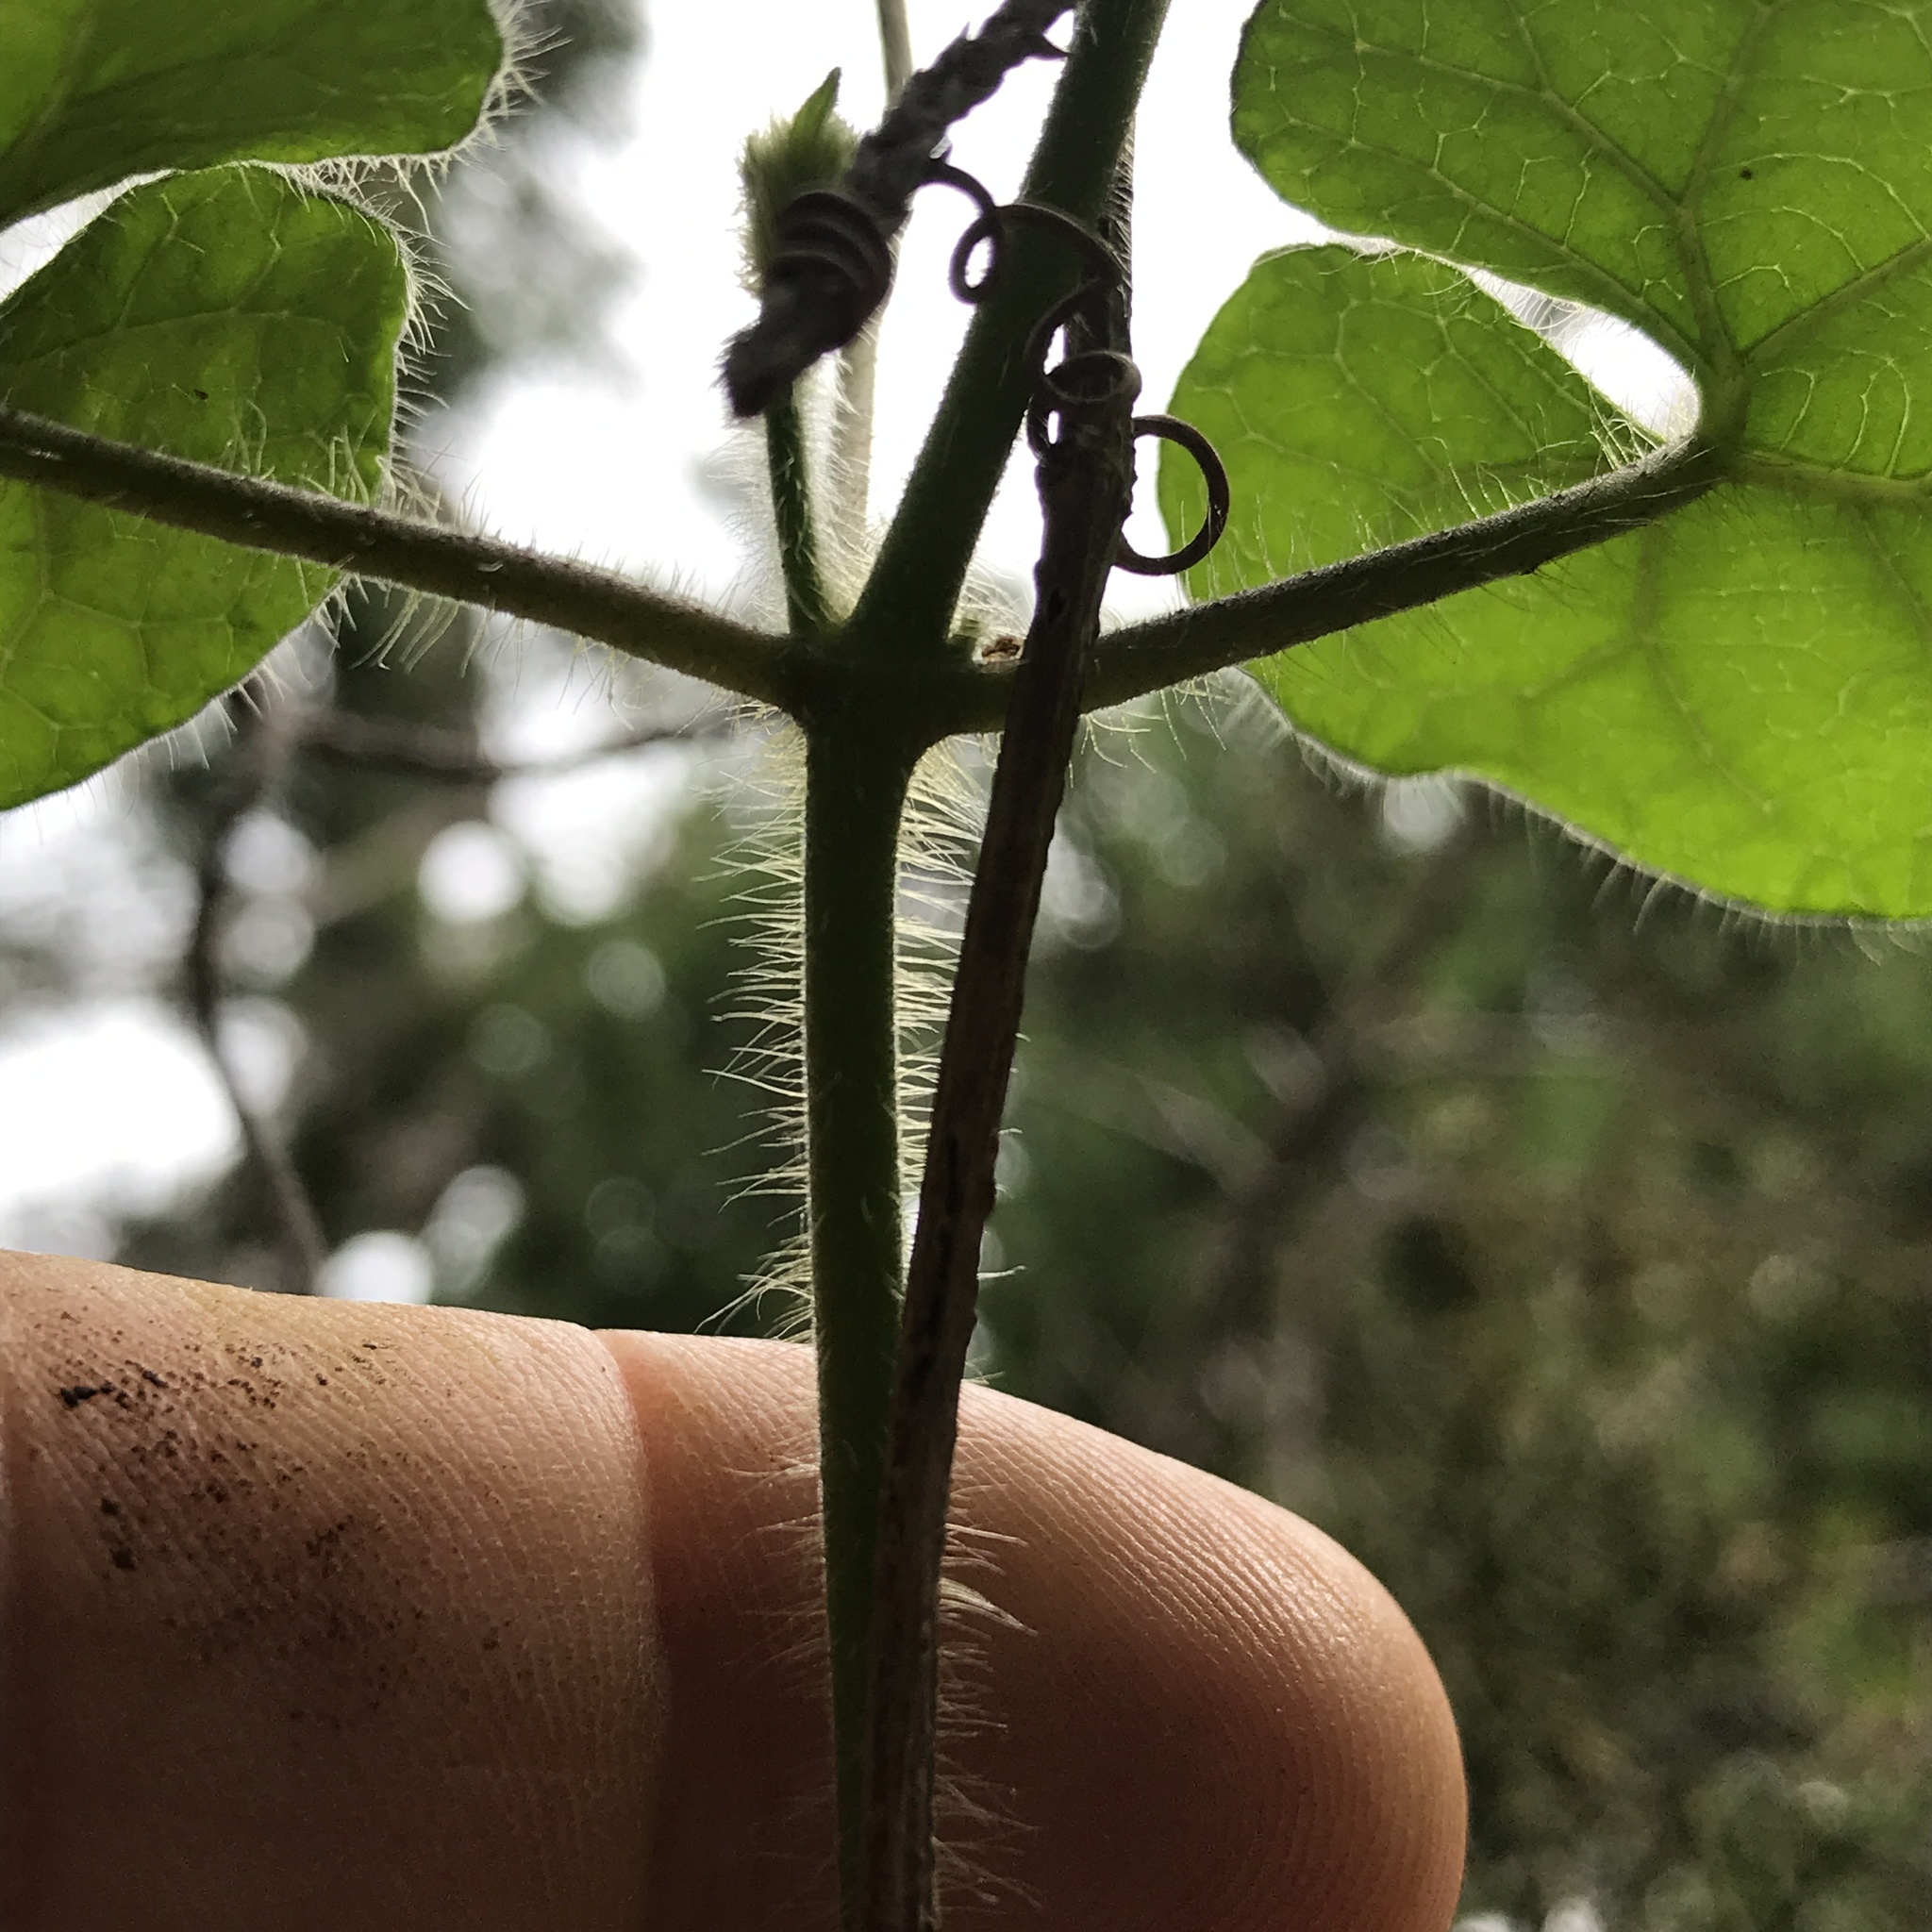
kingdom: Plantae
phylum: Tracheophyta
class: Magnoliopsida
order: Gentianales
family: Apocynaceae
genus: Dictyanthus
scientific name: Dictyanthus reticulatus
